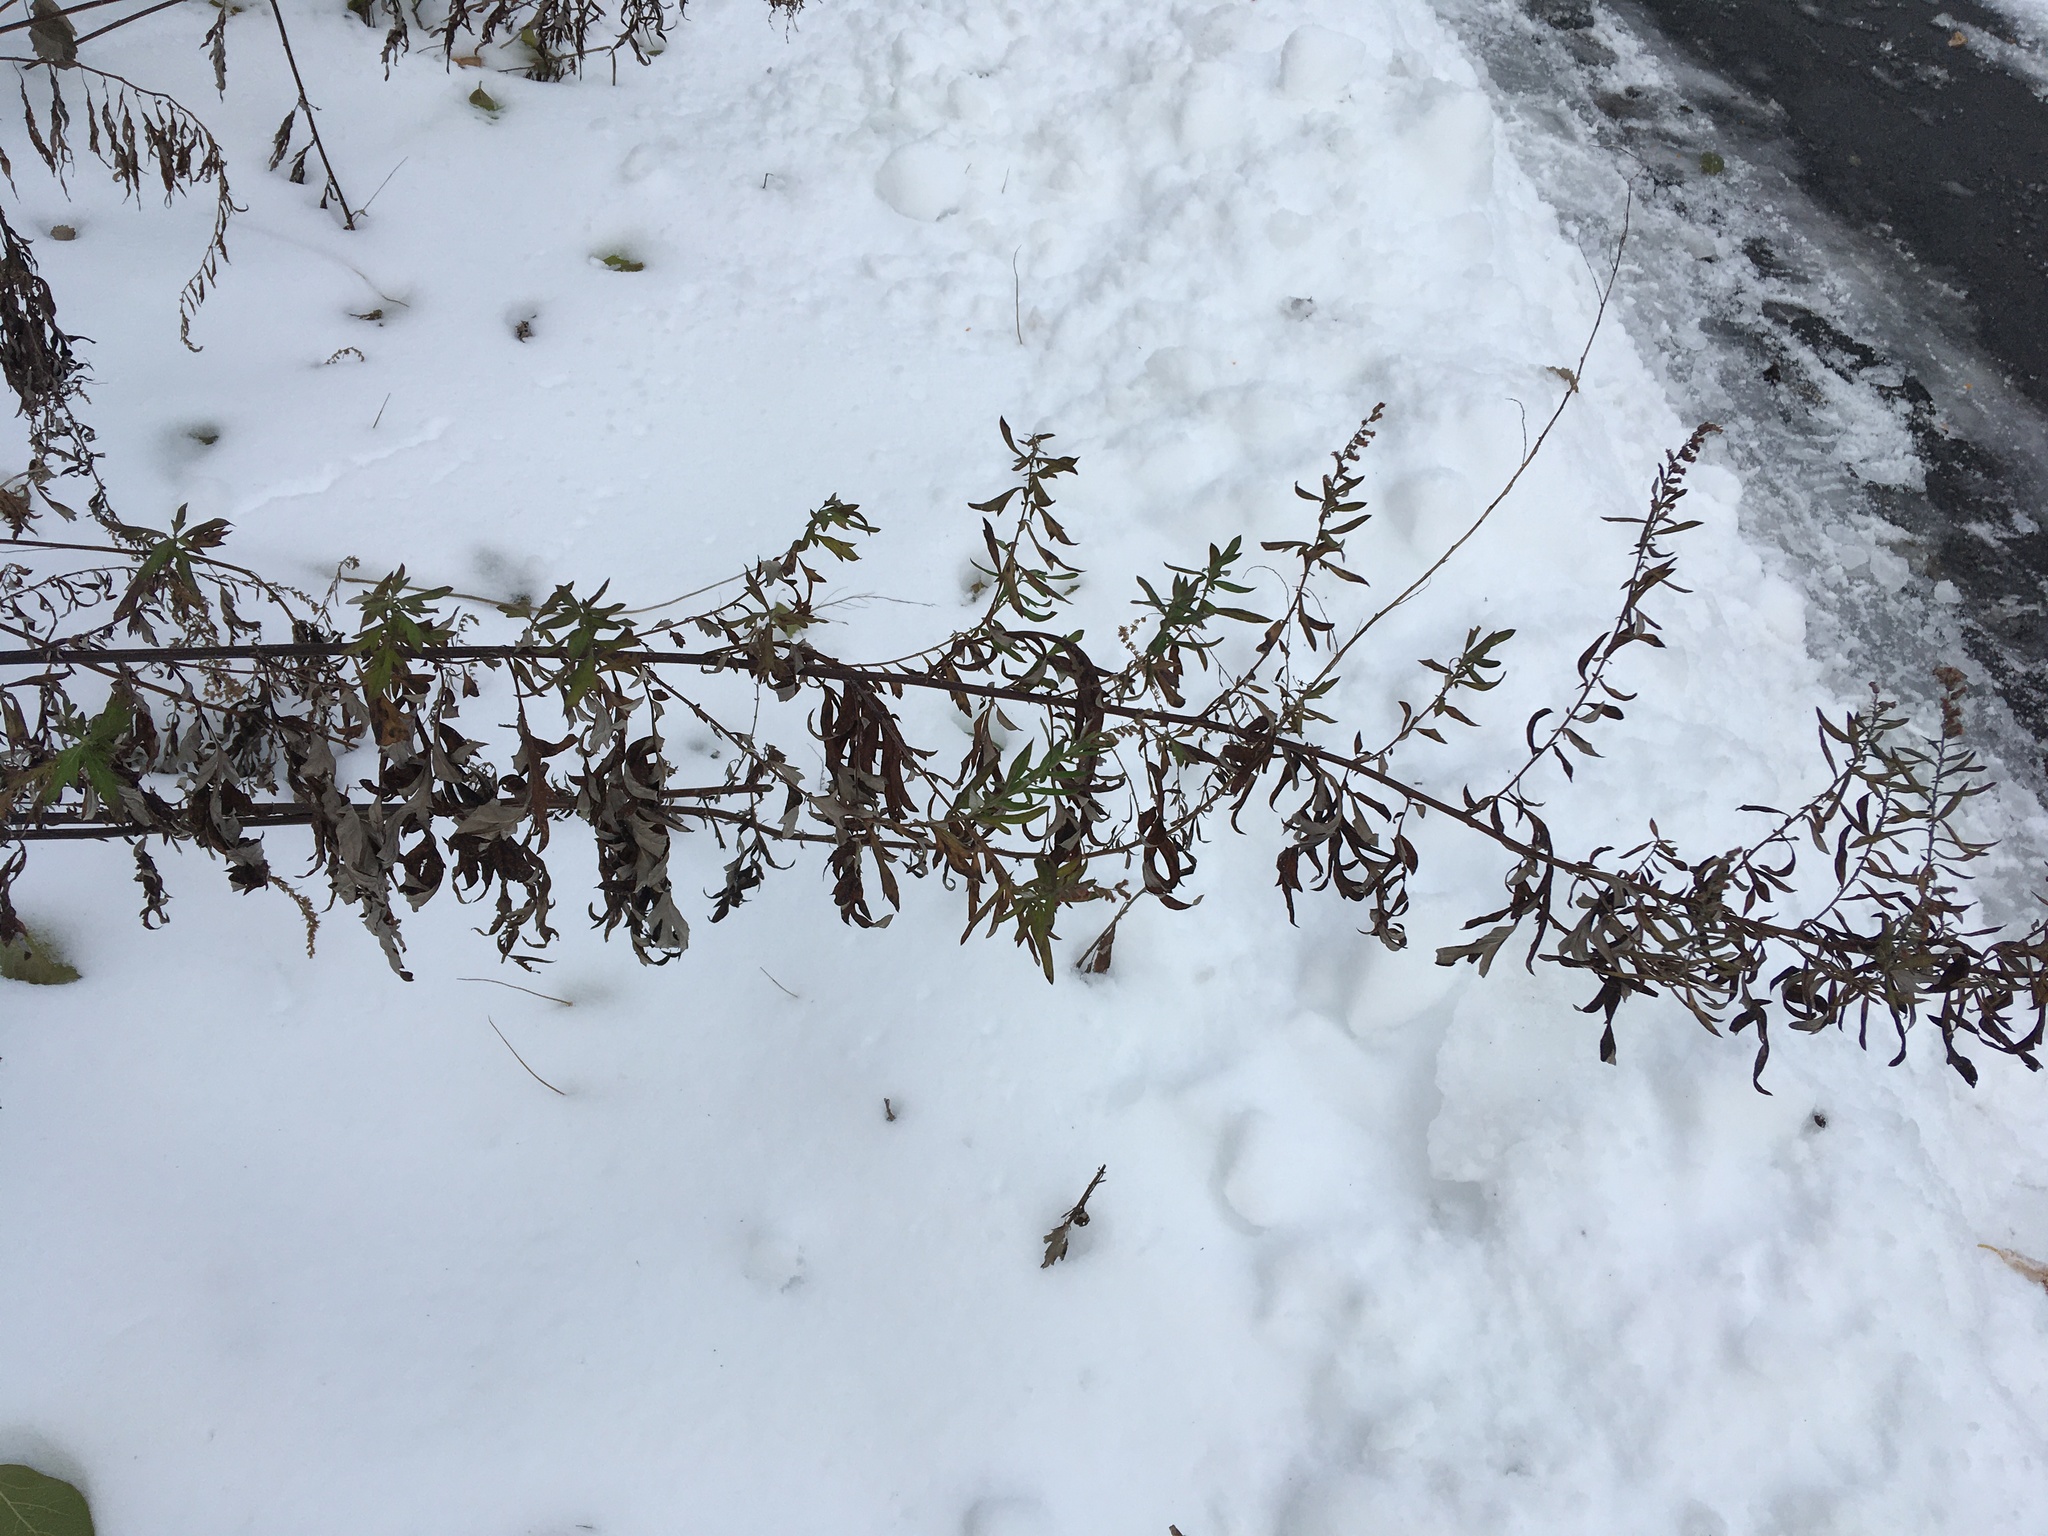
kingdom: Plantae
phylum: Tracheophyta
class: Magnoliopsida
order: Asterales
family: Asteraceae
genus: Artemisia
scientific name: Artemisia vulgaris
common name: Mugwort
